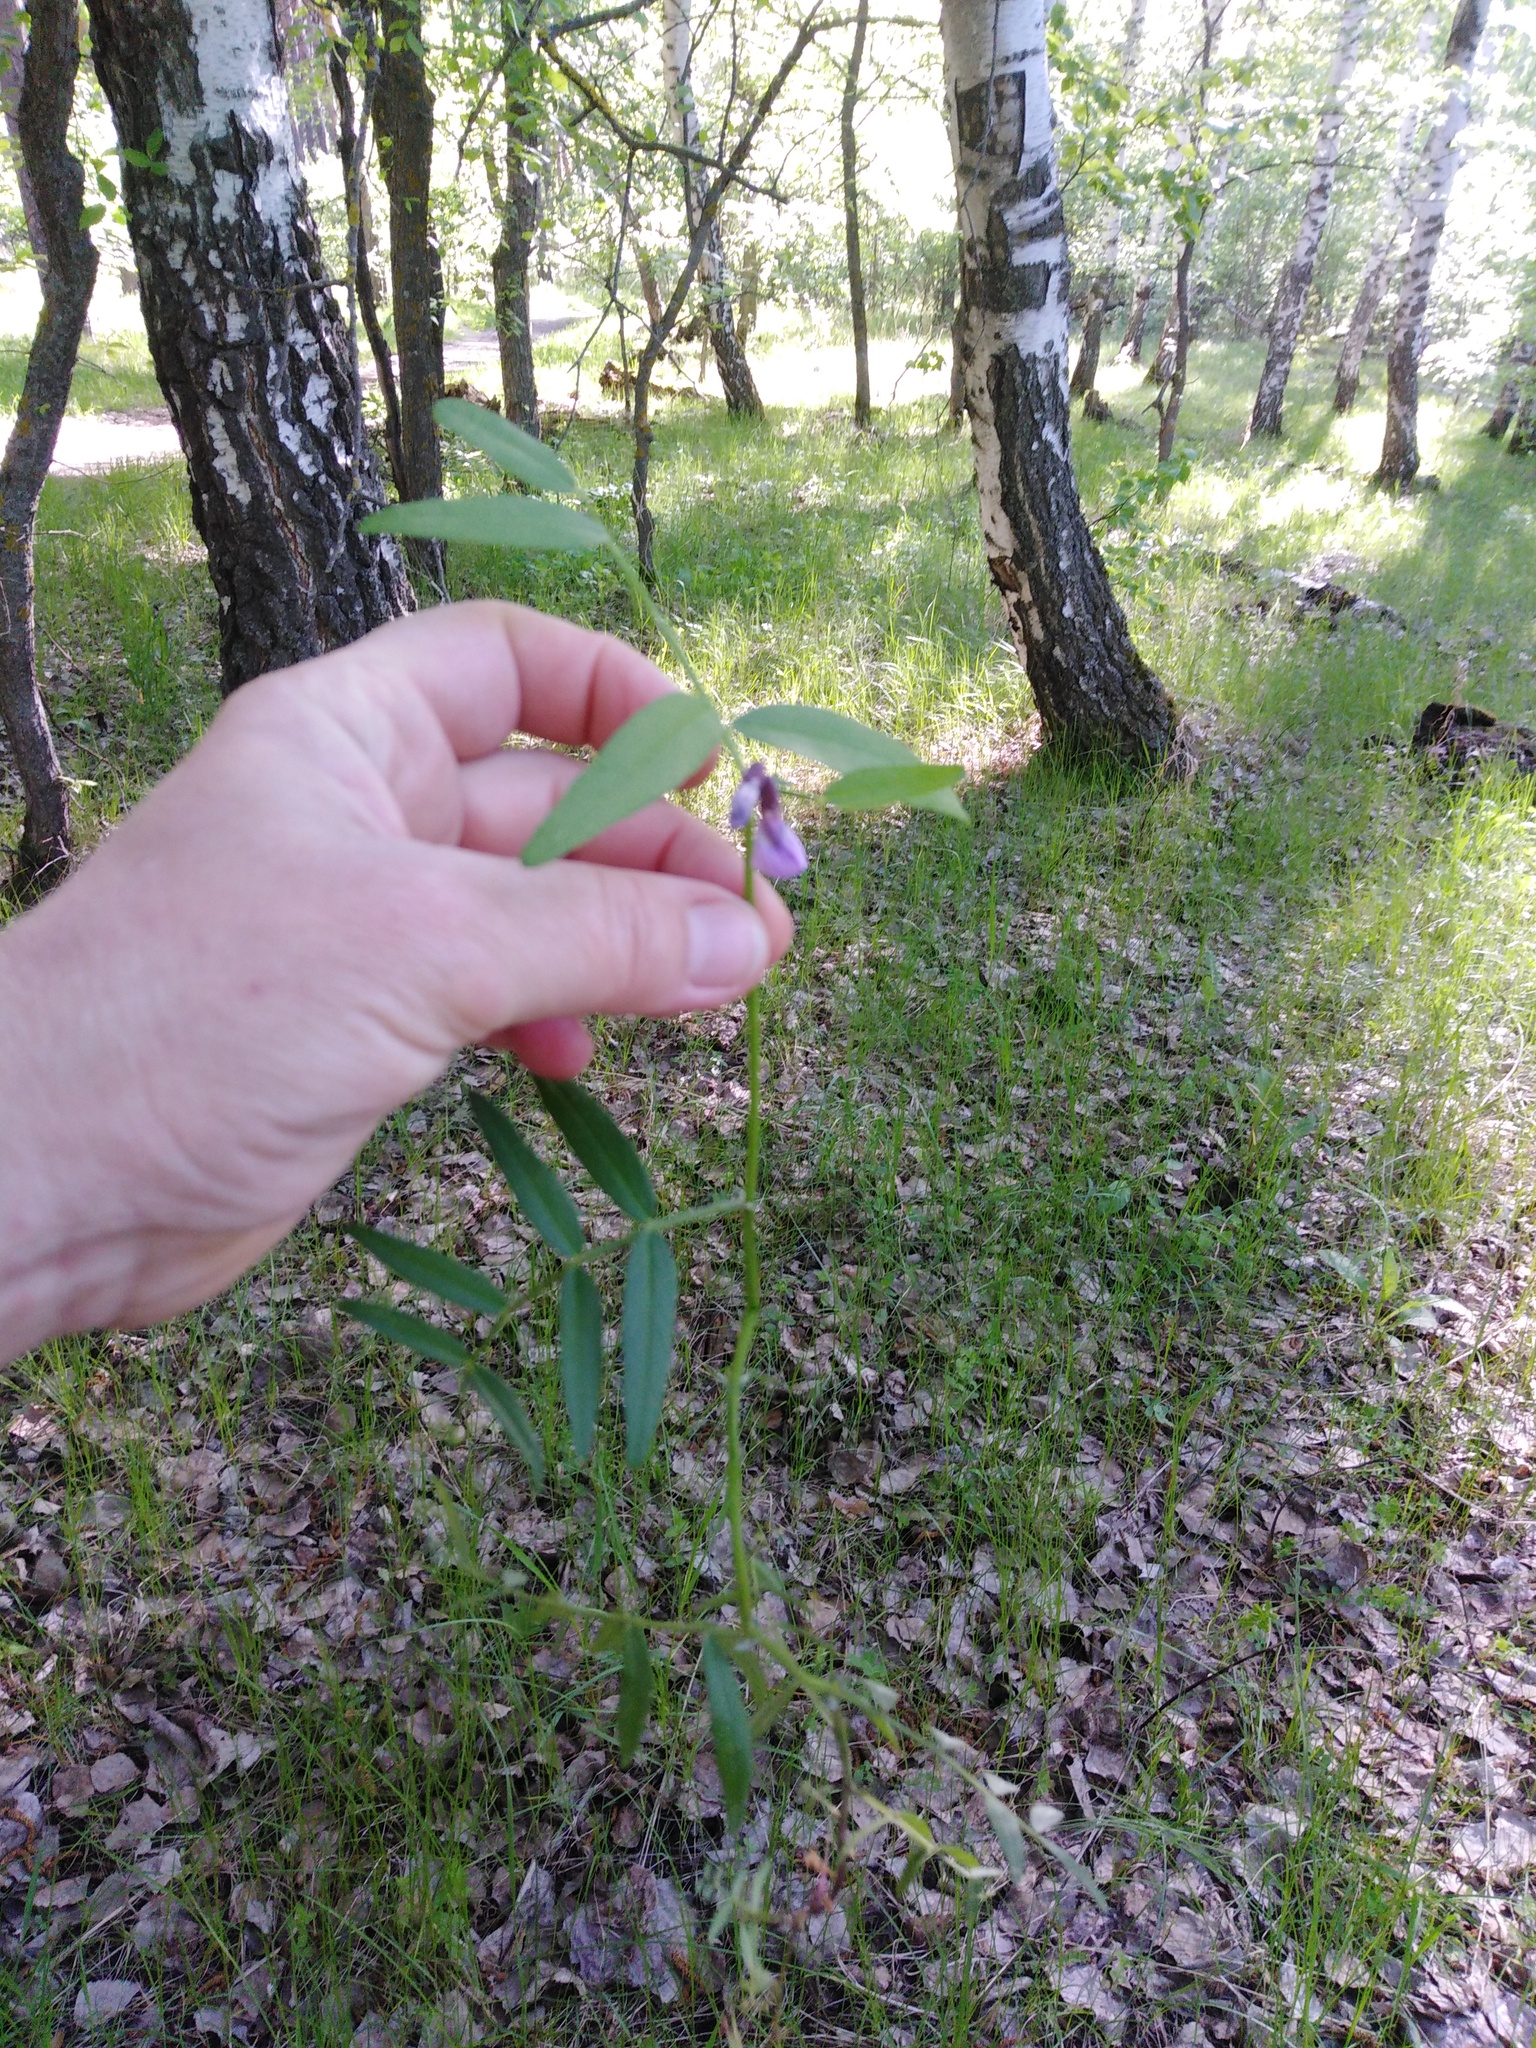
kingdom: Plantae
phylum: Tracheophyta
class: Magnoliopsida
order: Fabales
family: Fabaceae
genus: Vicia
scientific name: Vicia sepium
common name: Bush vetch
